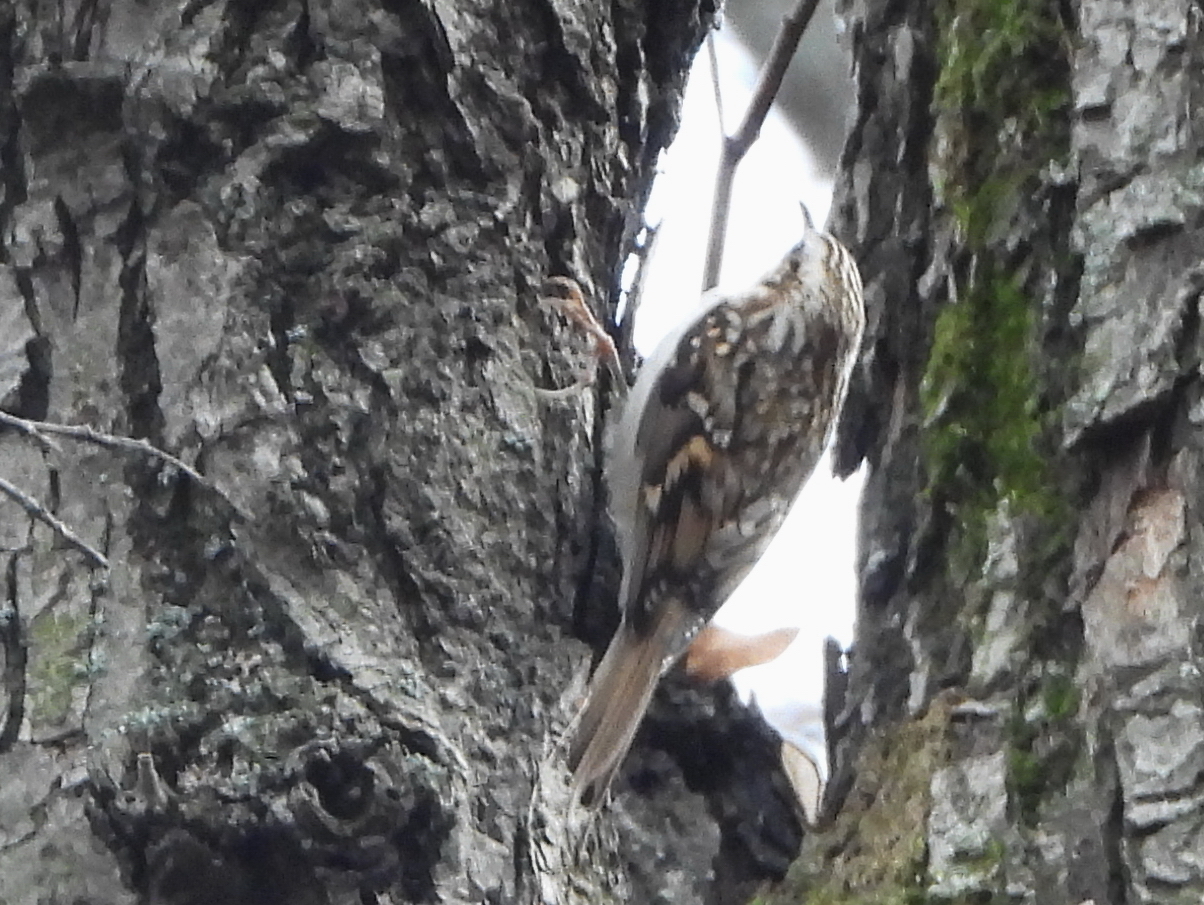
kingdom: Animalia
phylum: Chordata
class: Aves
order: Passeriformes
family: Certhiidae
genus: Certhia
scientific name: Certhia familiaris
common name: Eurasian treecreeper
